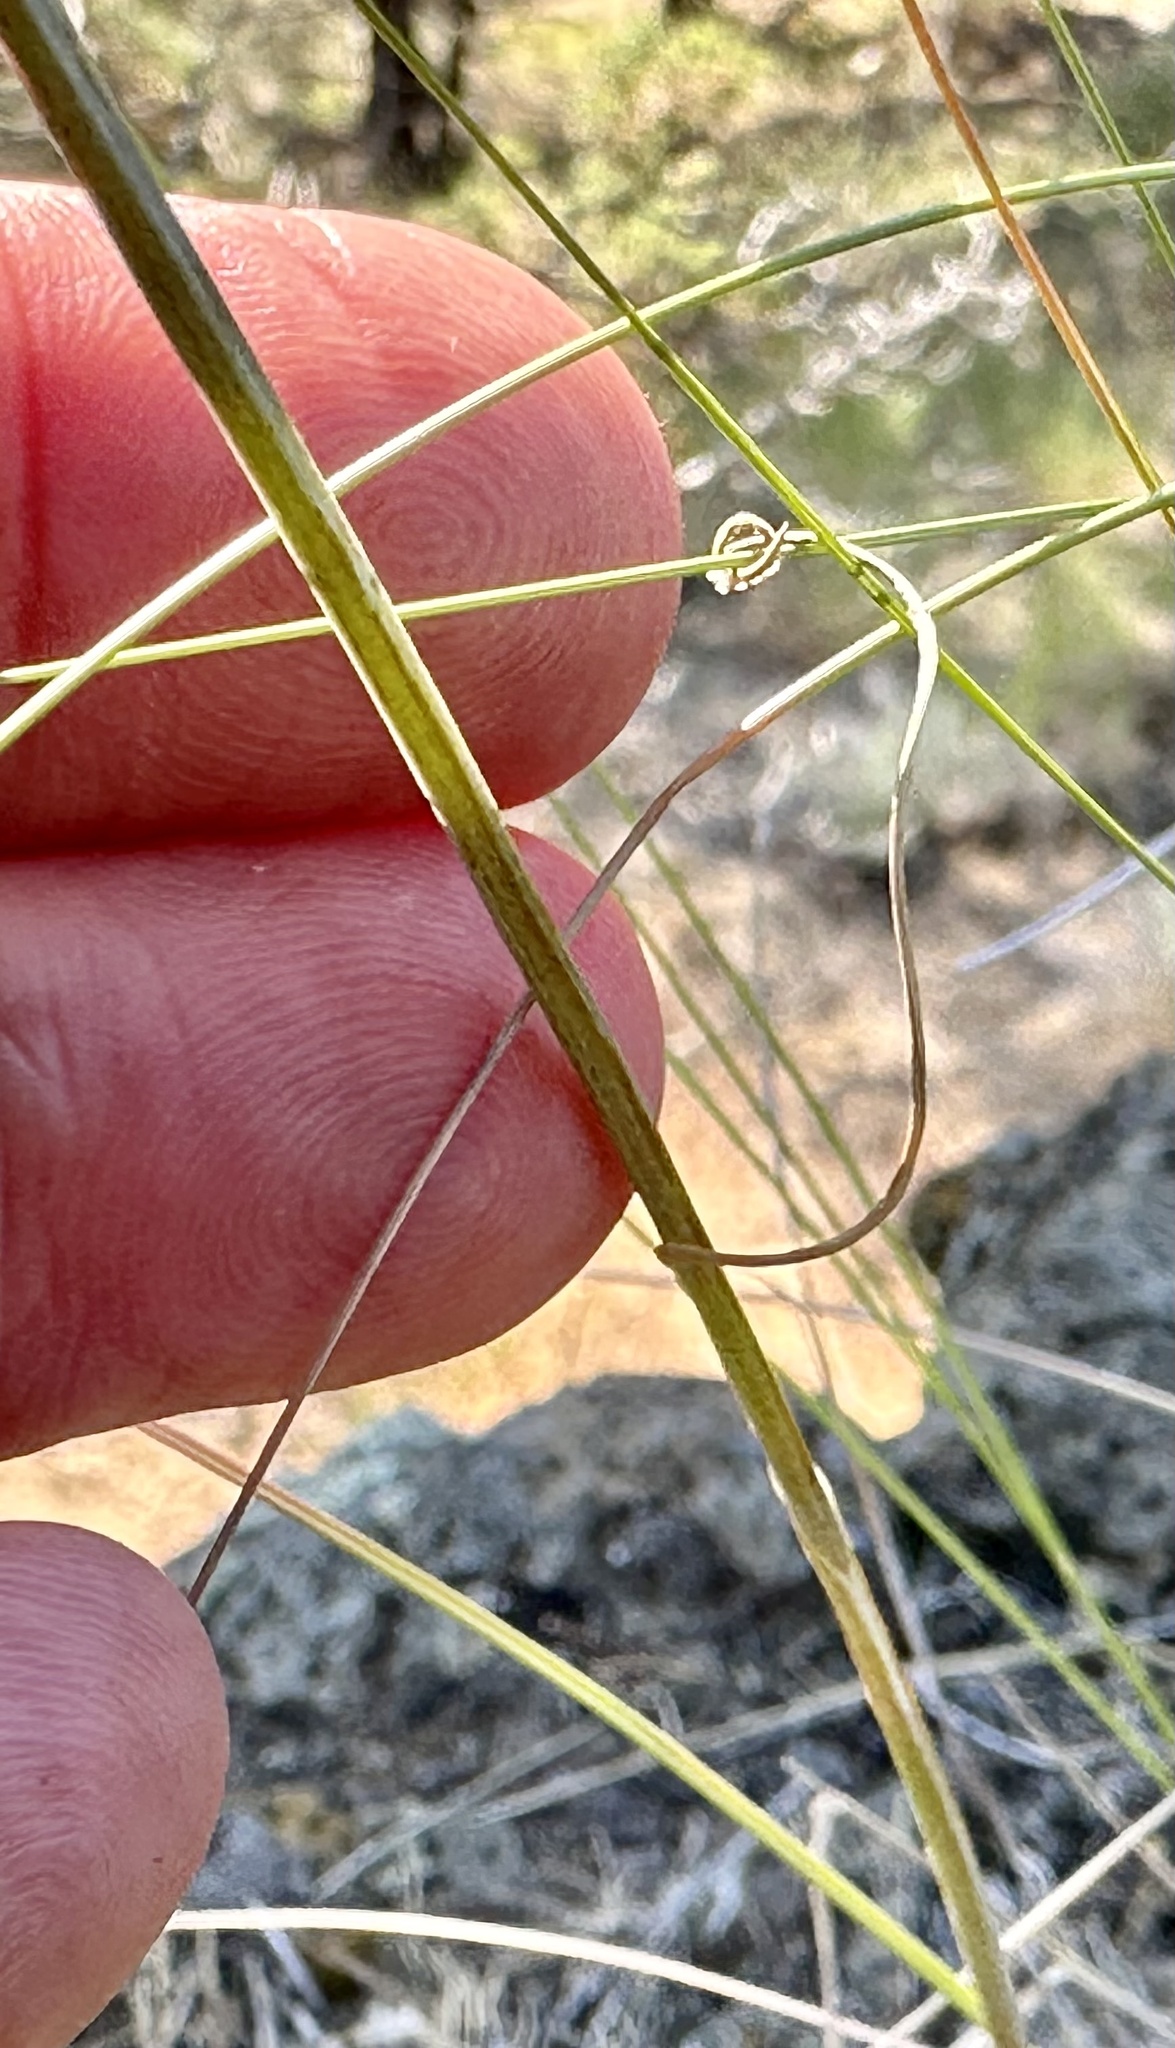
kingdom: Plantae
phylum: Tracheophyta
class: Liliopsida
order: Liliales
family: Liliaceae
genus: Calochortus
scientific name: Calochortus macrocarpus
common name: Green-band mariposa lily
